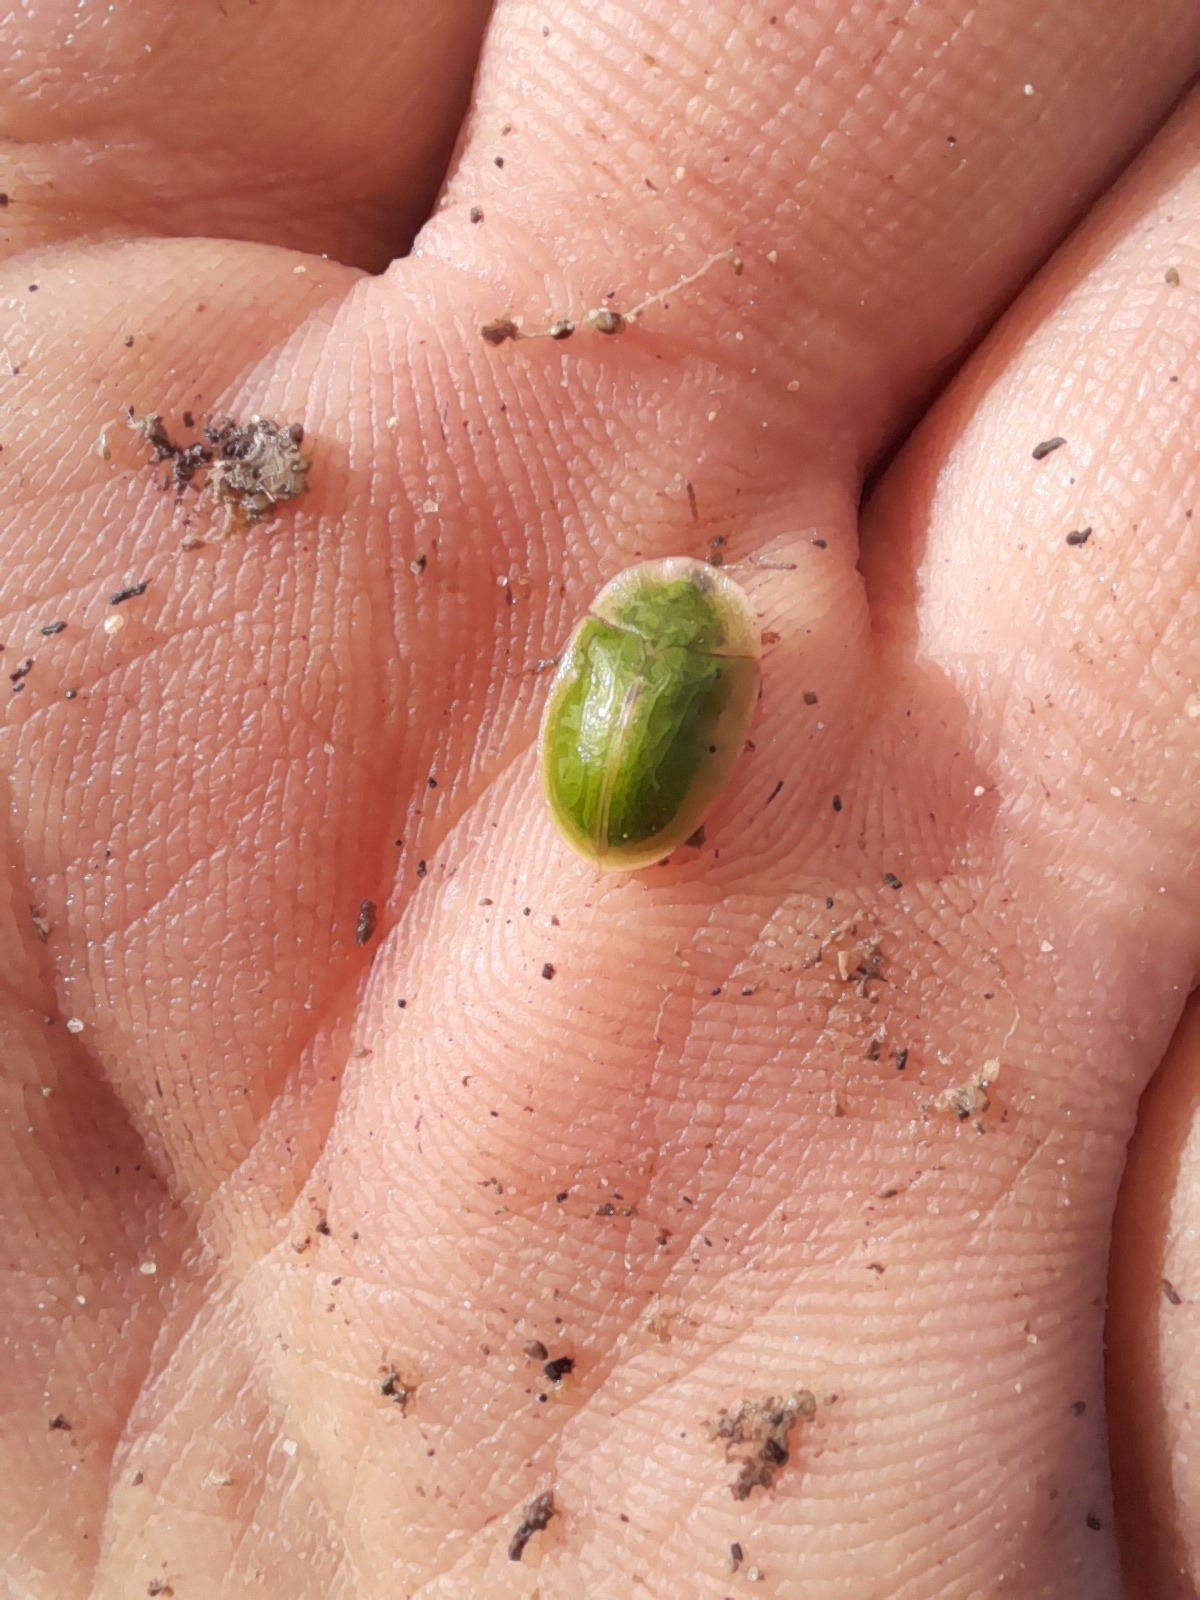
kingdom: Animalia
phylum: Arthropoda
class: Insecta
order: Coleoptera
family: Chrysomelidae
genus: Cassida
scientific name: Cassida deflorata
